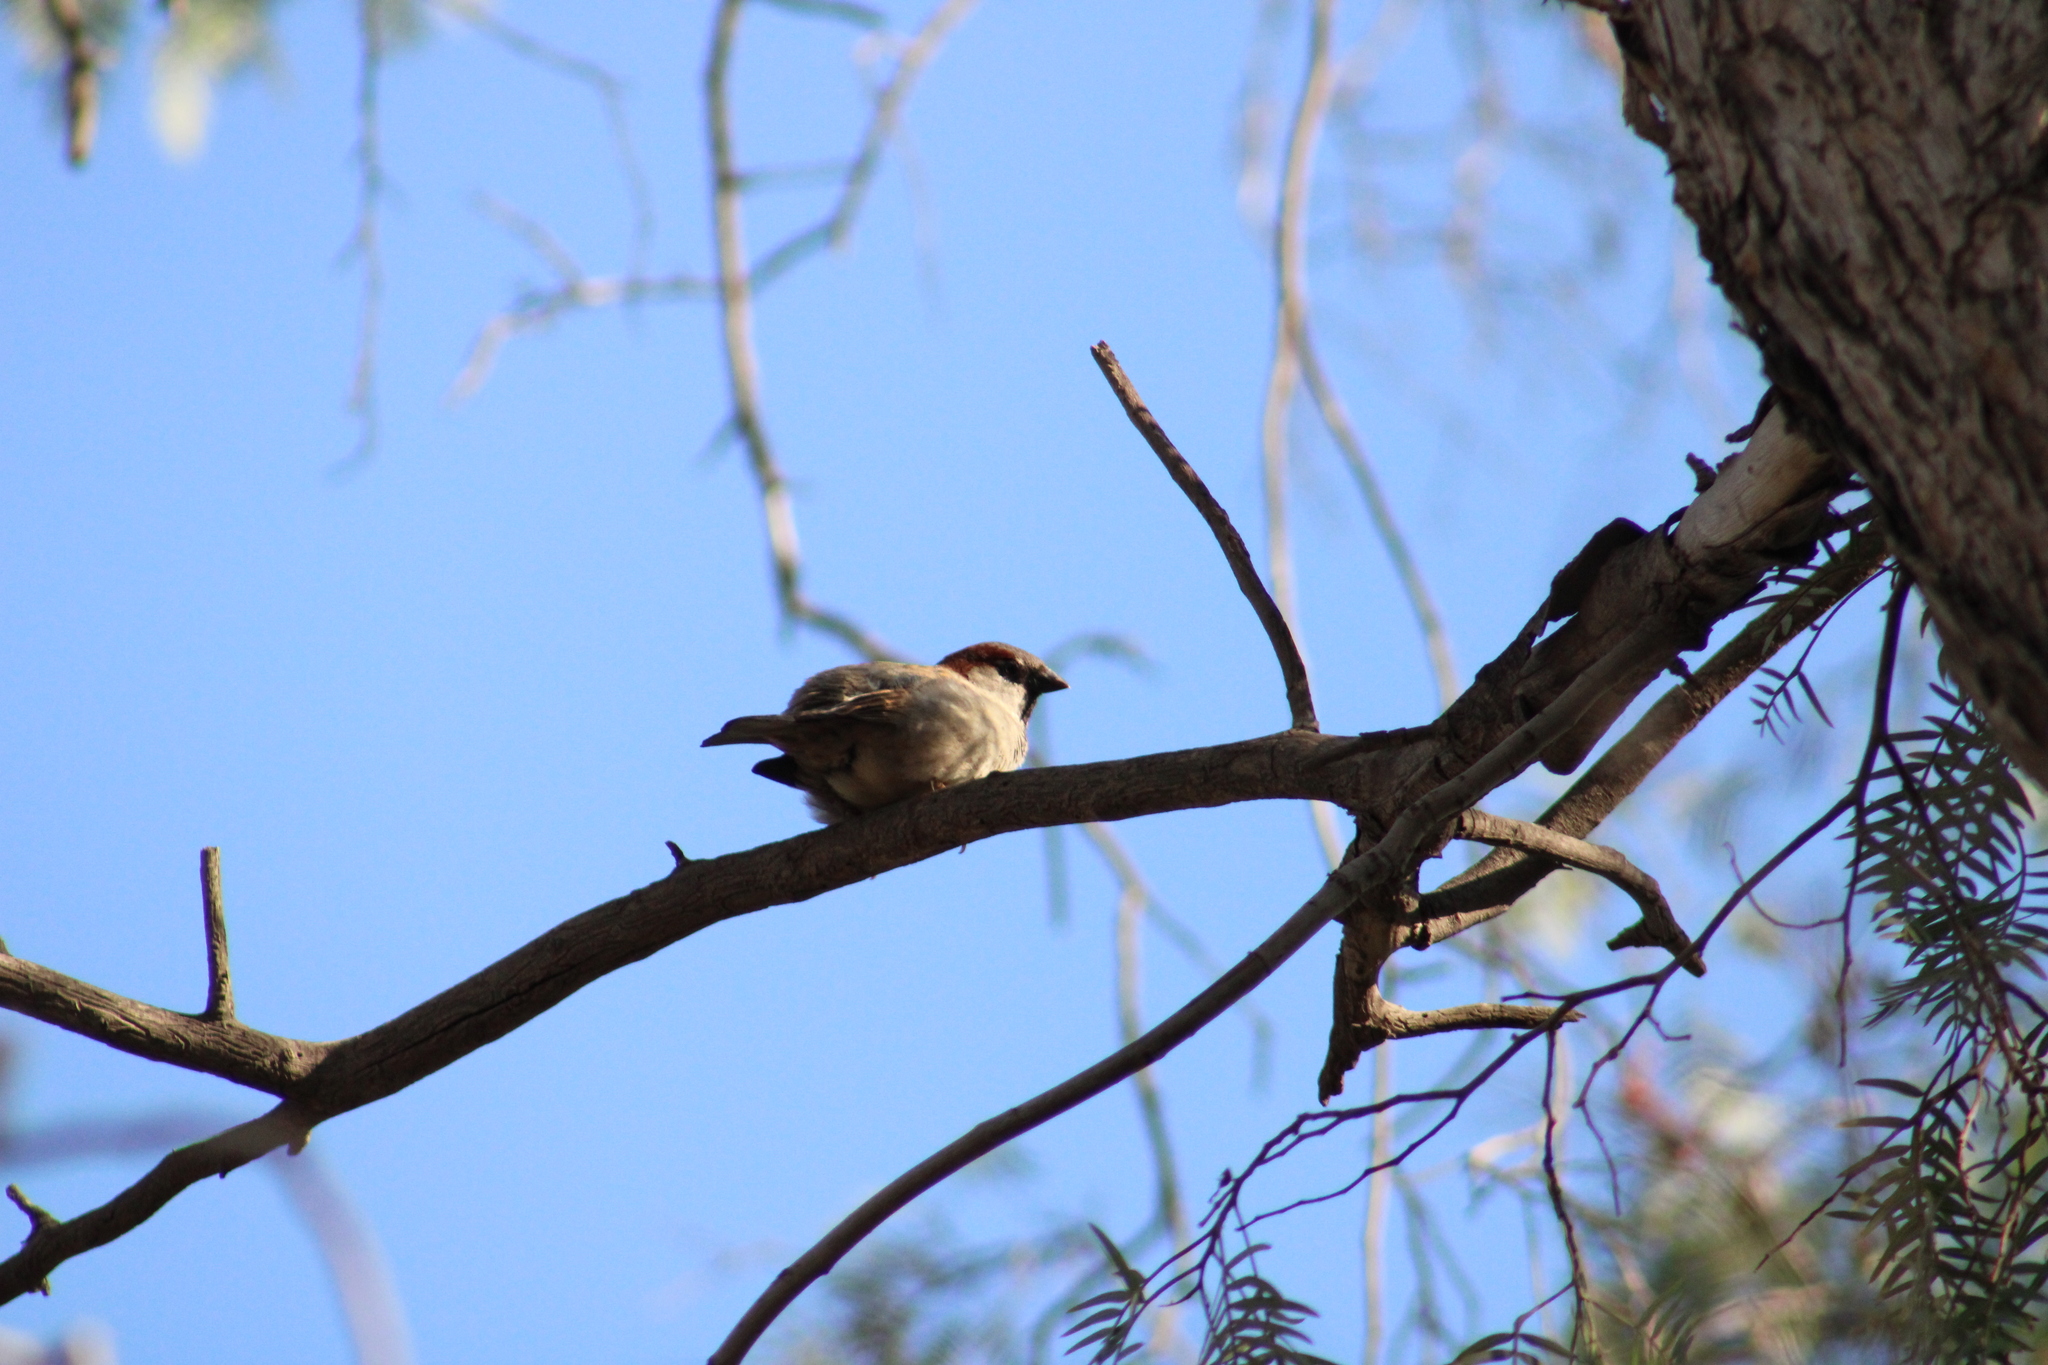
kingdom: Animalia
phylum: Chordata
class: Aves
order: Passeriformes
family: Passeridae
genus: Passer
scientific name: Passer domesticus
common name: House sparrow
